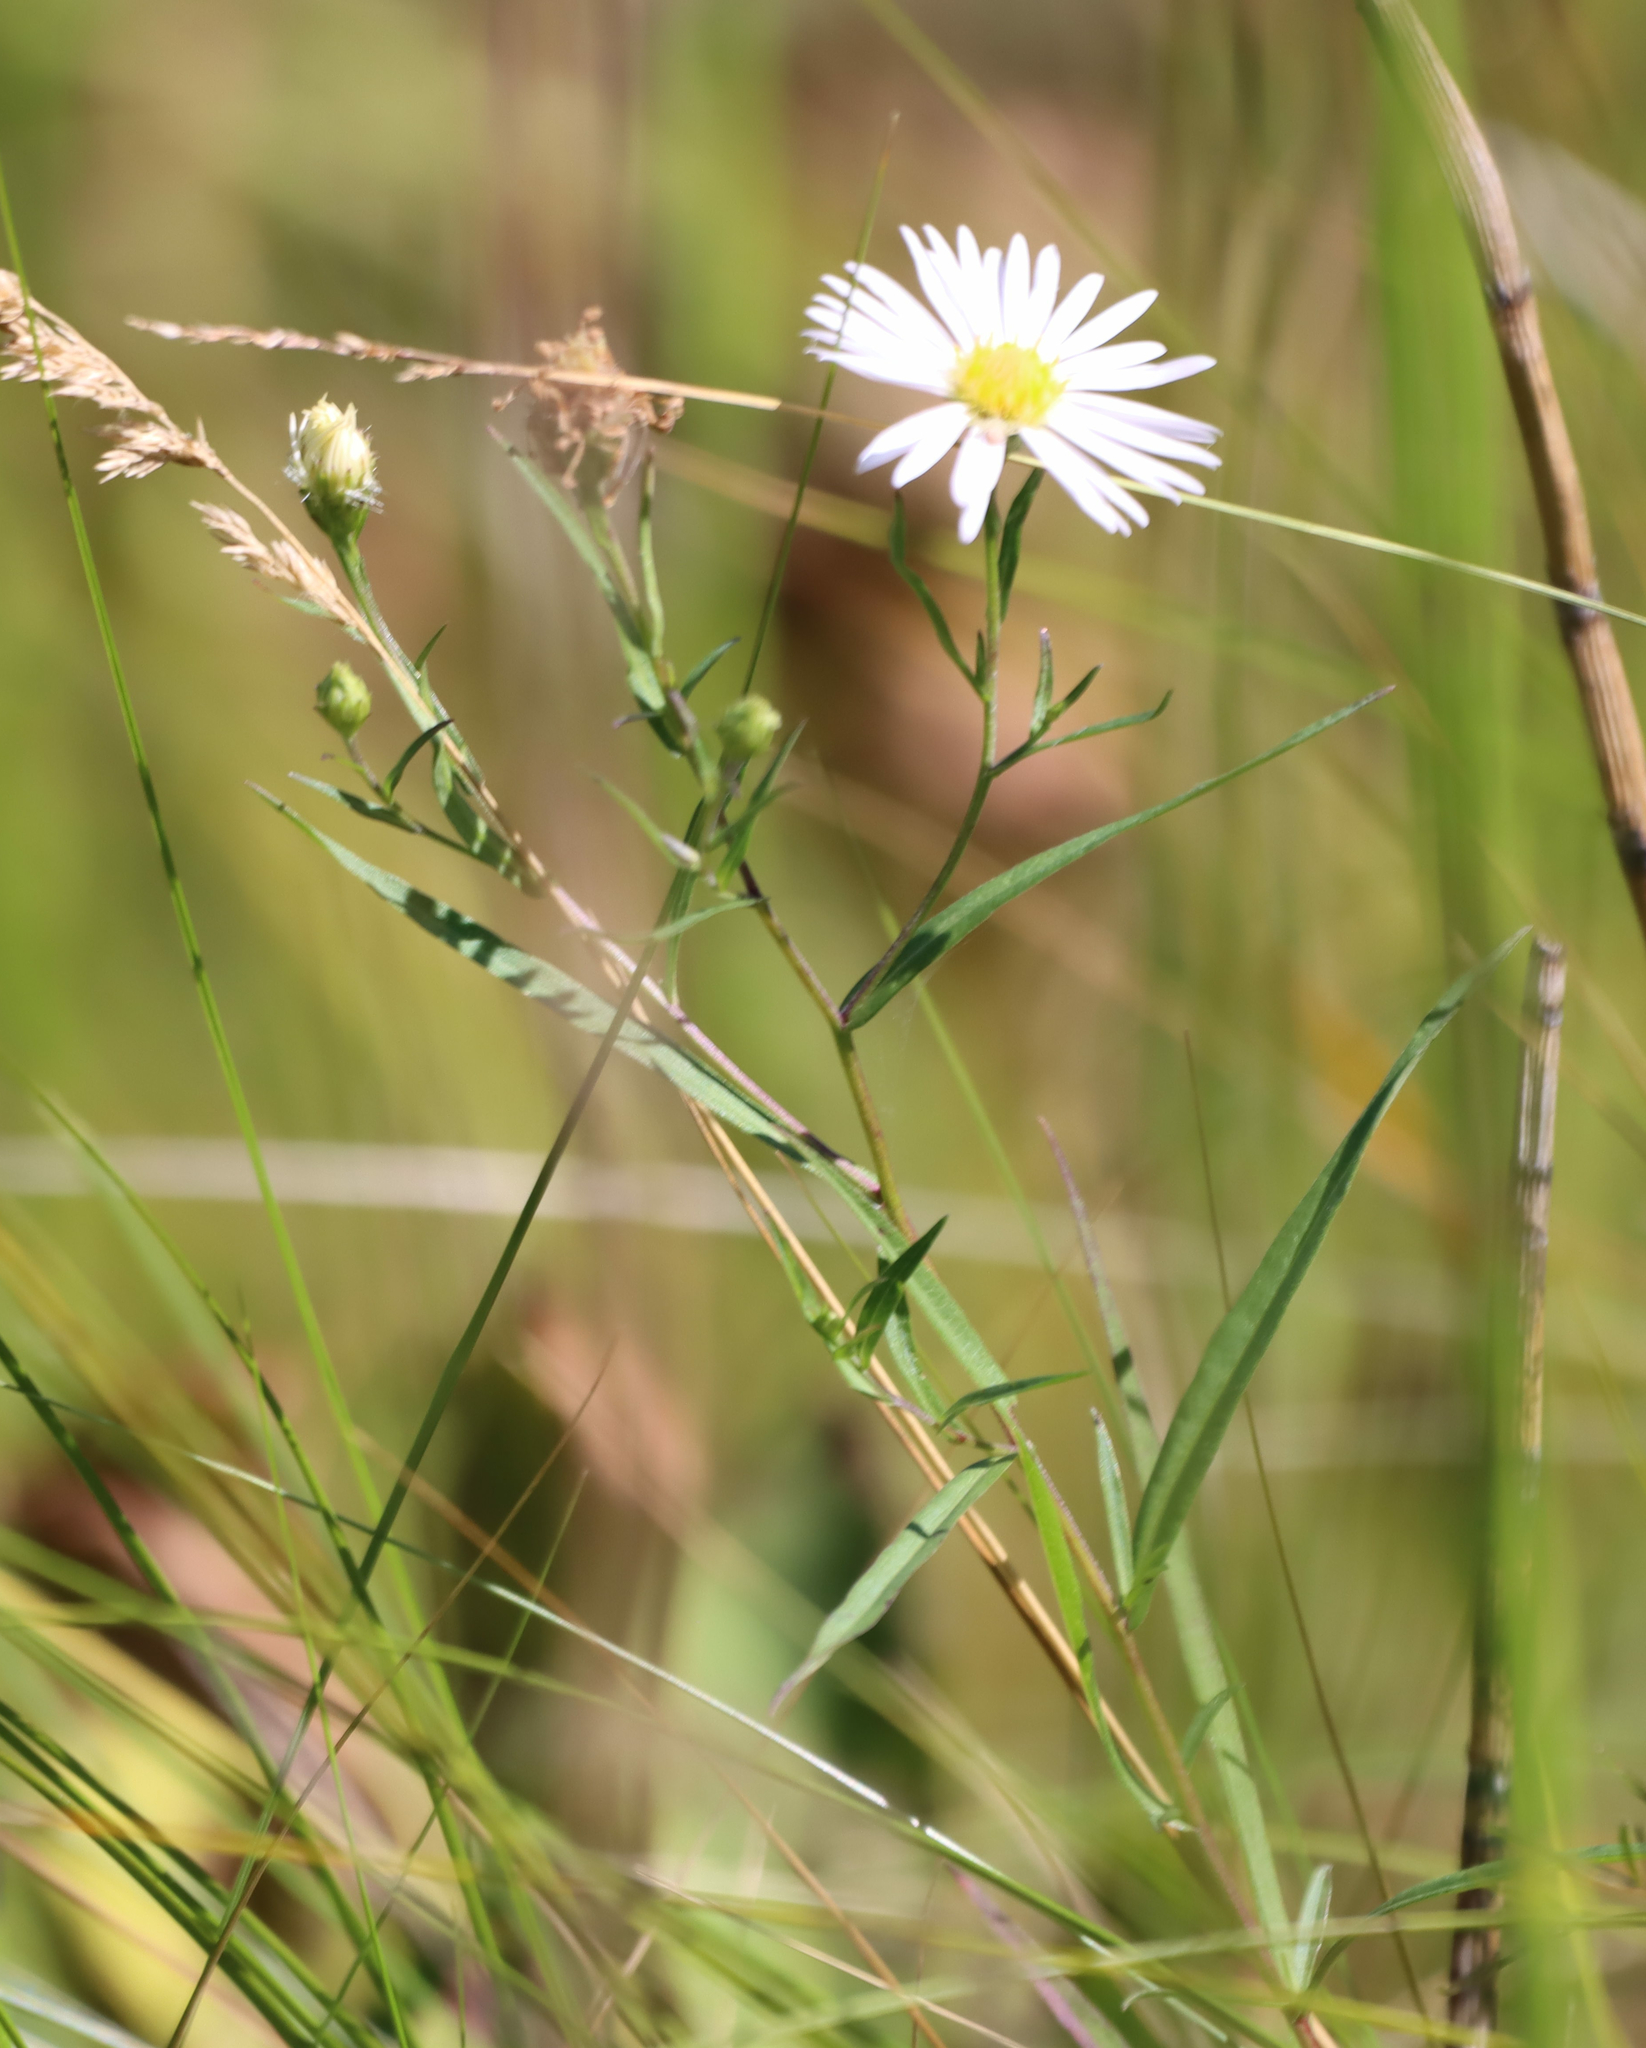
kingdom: Plantae
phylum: Tracheophyta
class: Magnoliopsida
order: Asterales
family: Asteraceae
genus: Symphyotrichum
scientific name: Symphyotrichum boreale
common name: Northern bog aster
